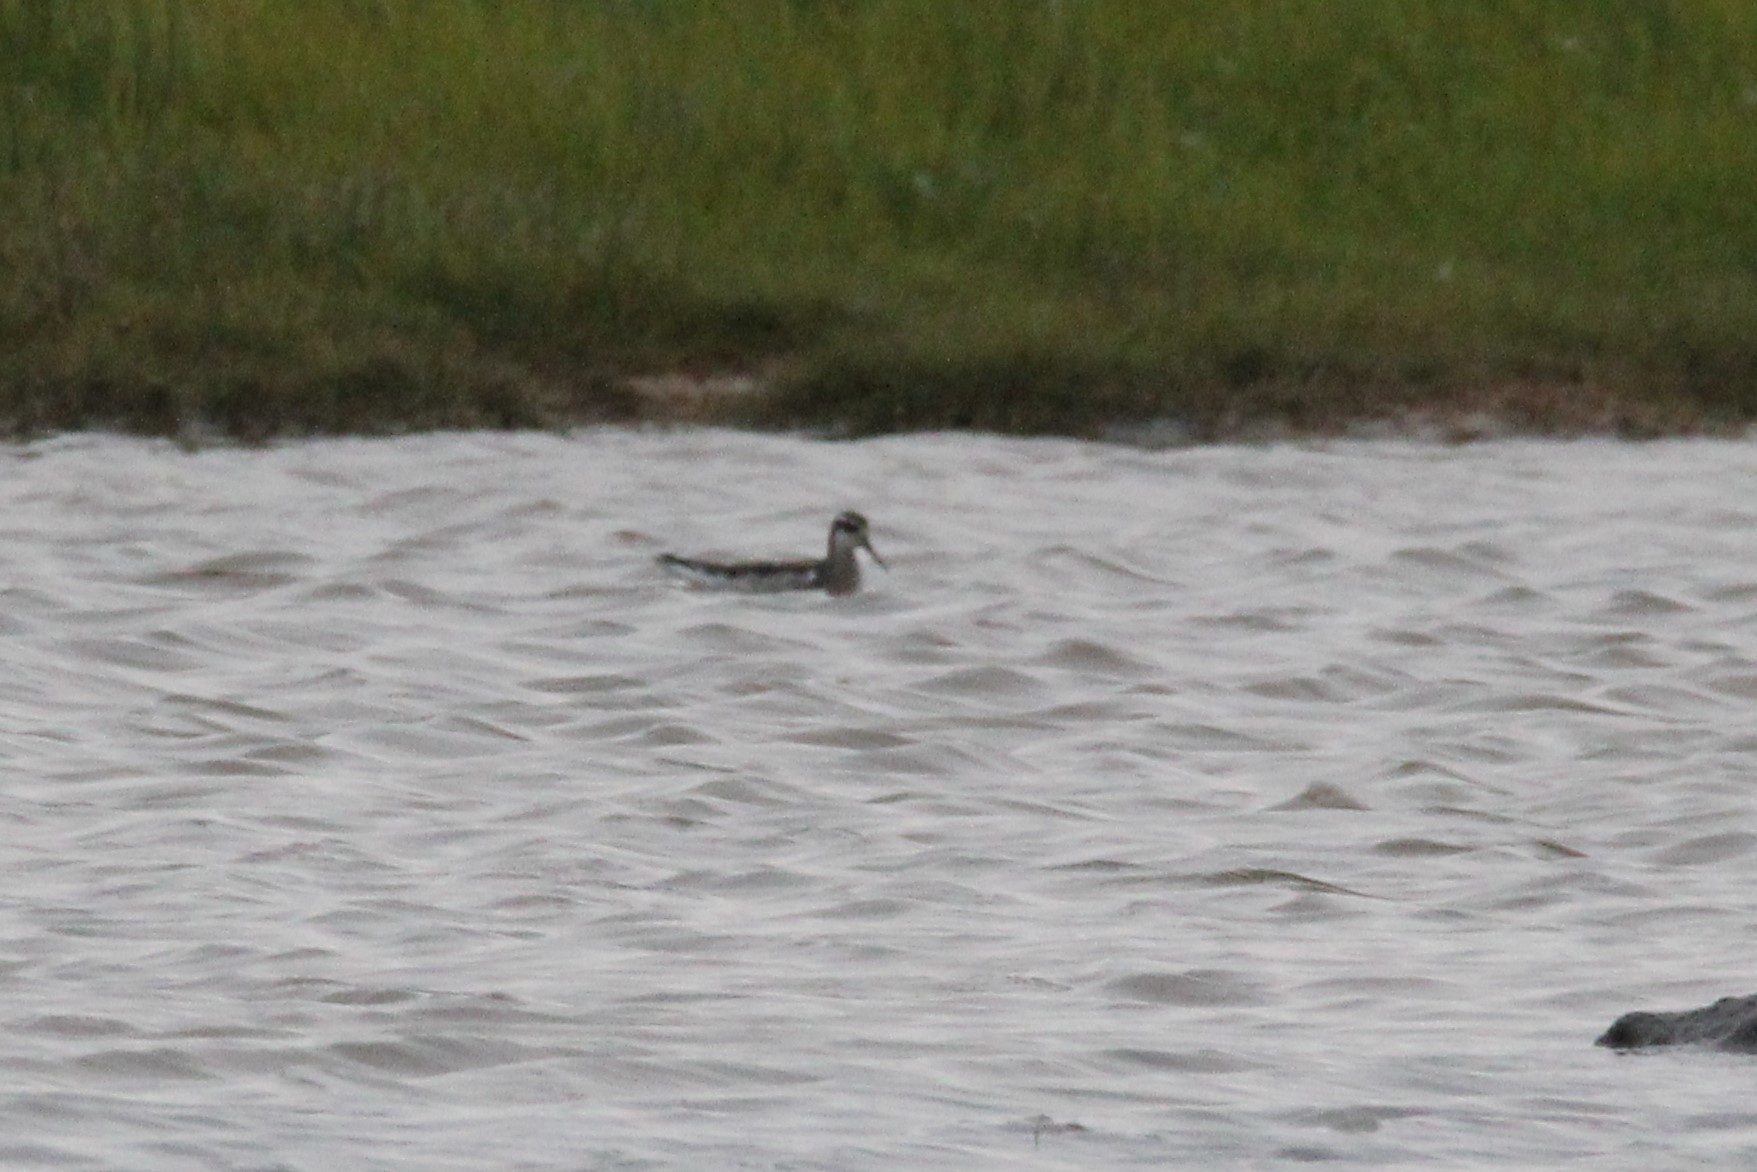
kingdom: Animalia
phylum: Chordata
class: Aves
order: Charadriiformes
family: Scolopacidae
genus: Phalaropus
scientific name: Phalaropus lobatus
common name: Red-necked phalarope
